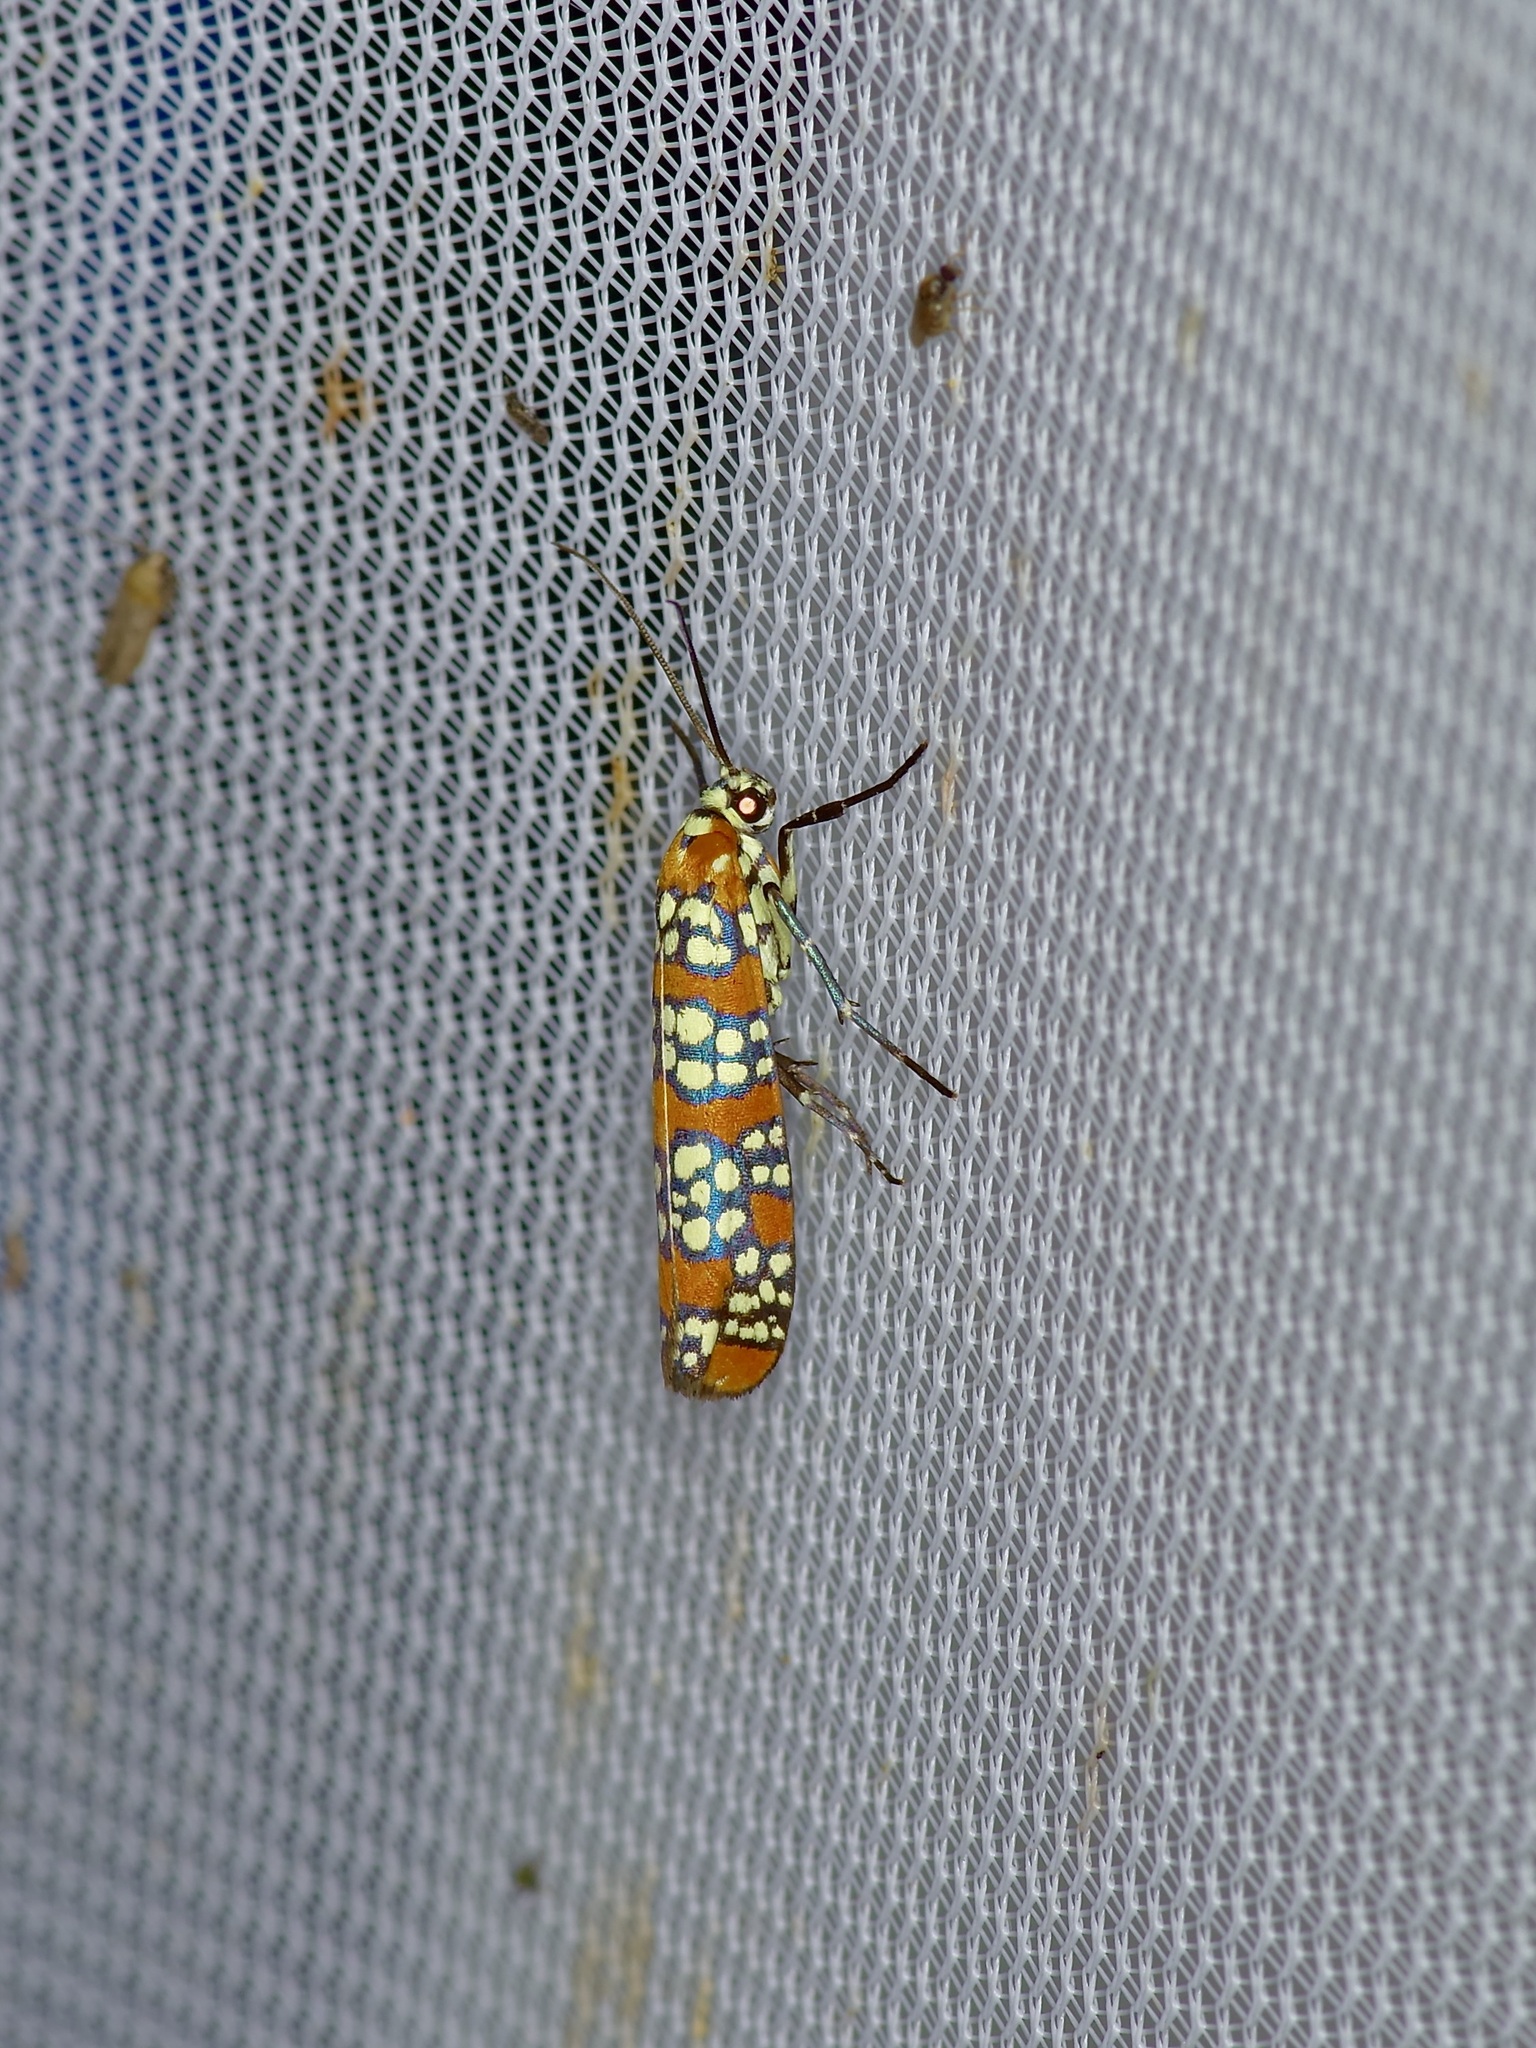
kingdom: Animalia
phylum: Arthropoda
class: Insecta
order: Lepidoptera
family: Attevidae
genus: Atteva
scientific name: Atteva punctella
